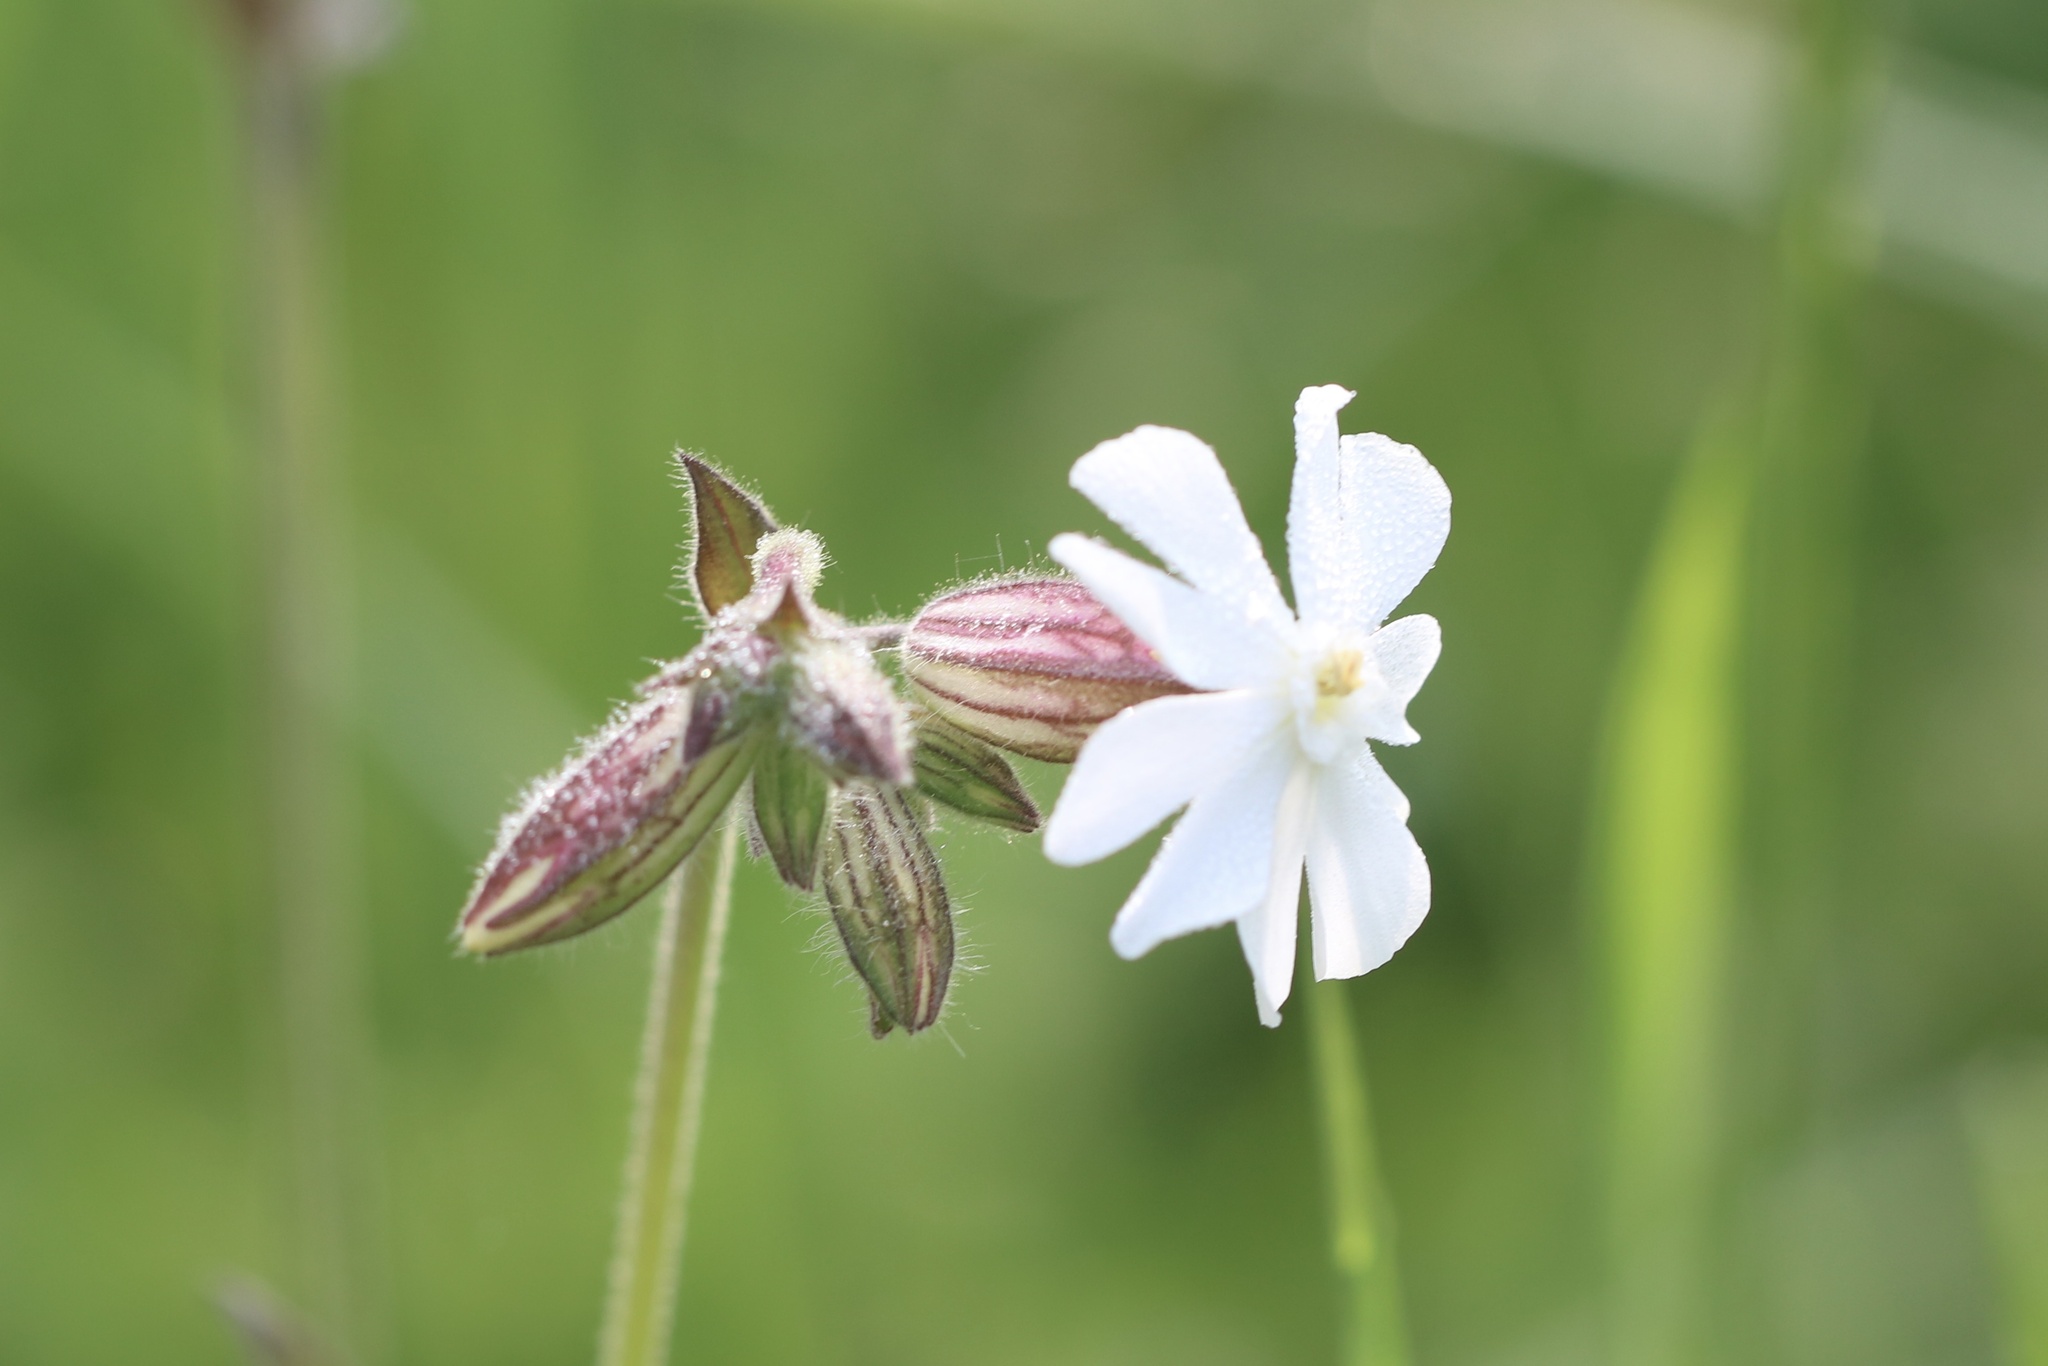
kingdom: Plantae
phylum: Tracheophyta
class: Magnoliopsida
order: Caryophyllales
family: Caryophyllaceae
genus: Silene
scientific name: Silene latifolia
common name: White campion
